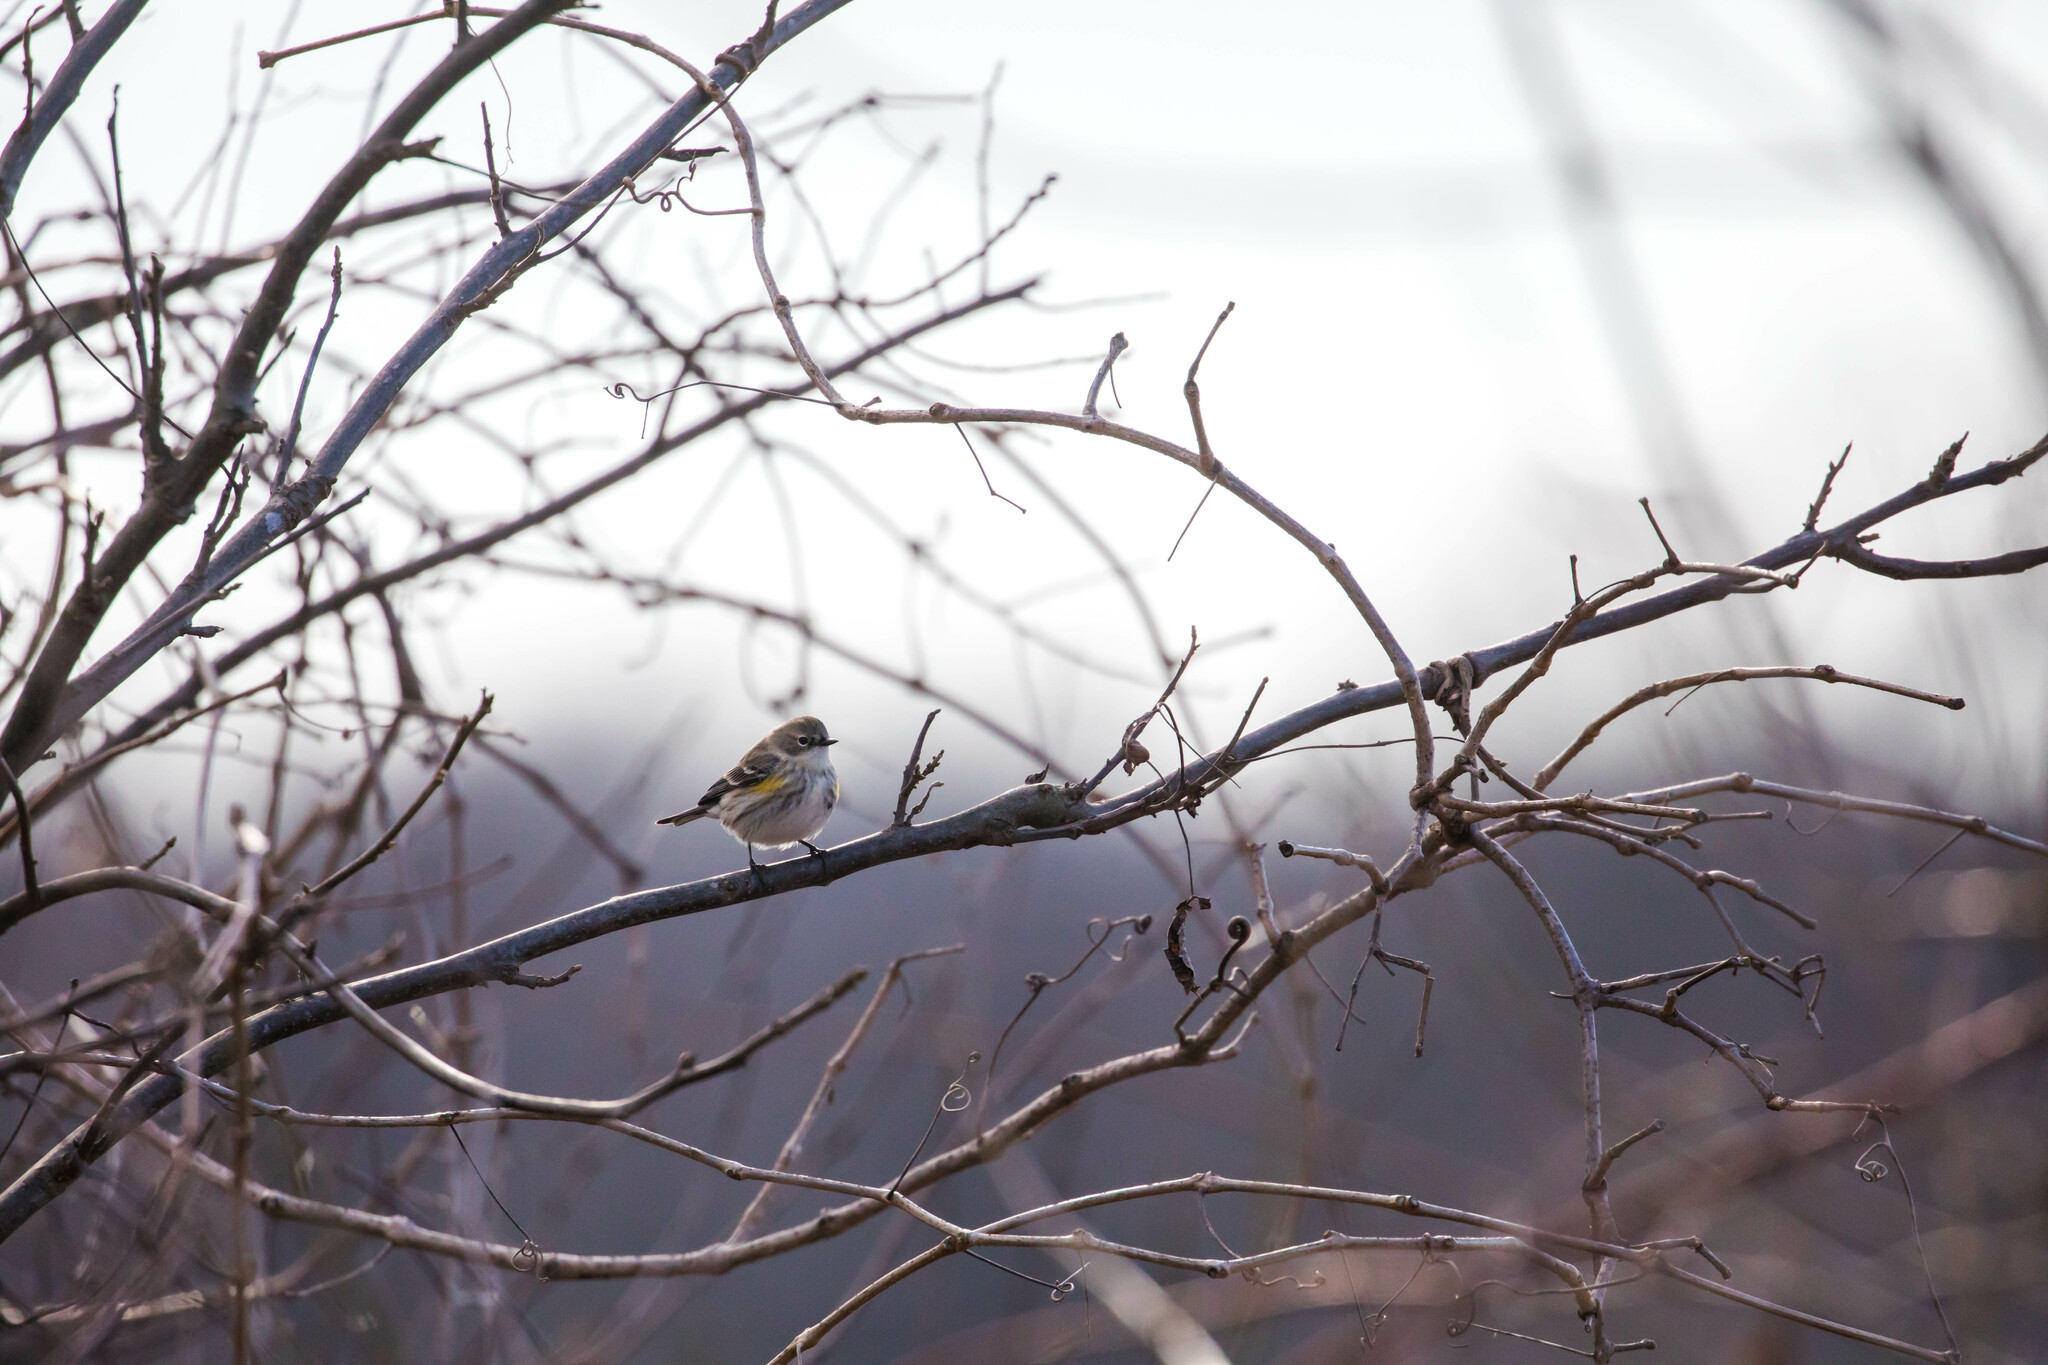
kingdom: Animalia
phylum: Chordata
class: Aves
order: Passeriformes
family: Parulidae
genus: Setophaga
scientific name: Setophaga coronata
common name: Myrtle warbler
